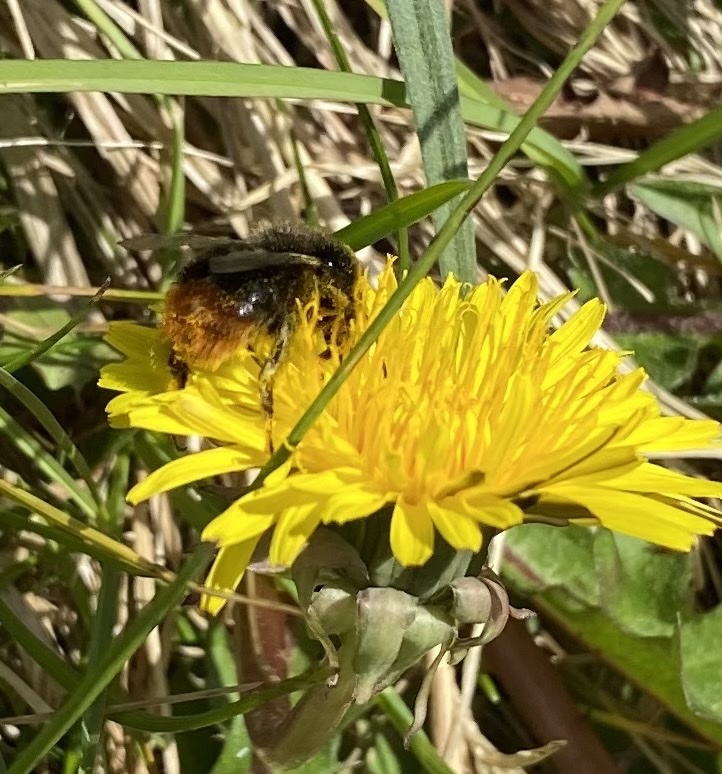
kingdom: Animalia
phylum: Arthropoda
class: Insecta
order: Hymenoptera
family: Apidae
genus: Bombus
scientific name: Bombus lapidarius
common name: Large red-tailed humble-bee
